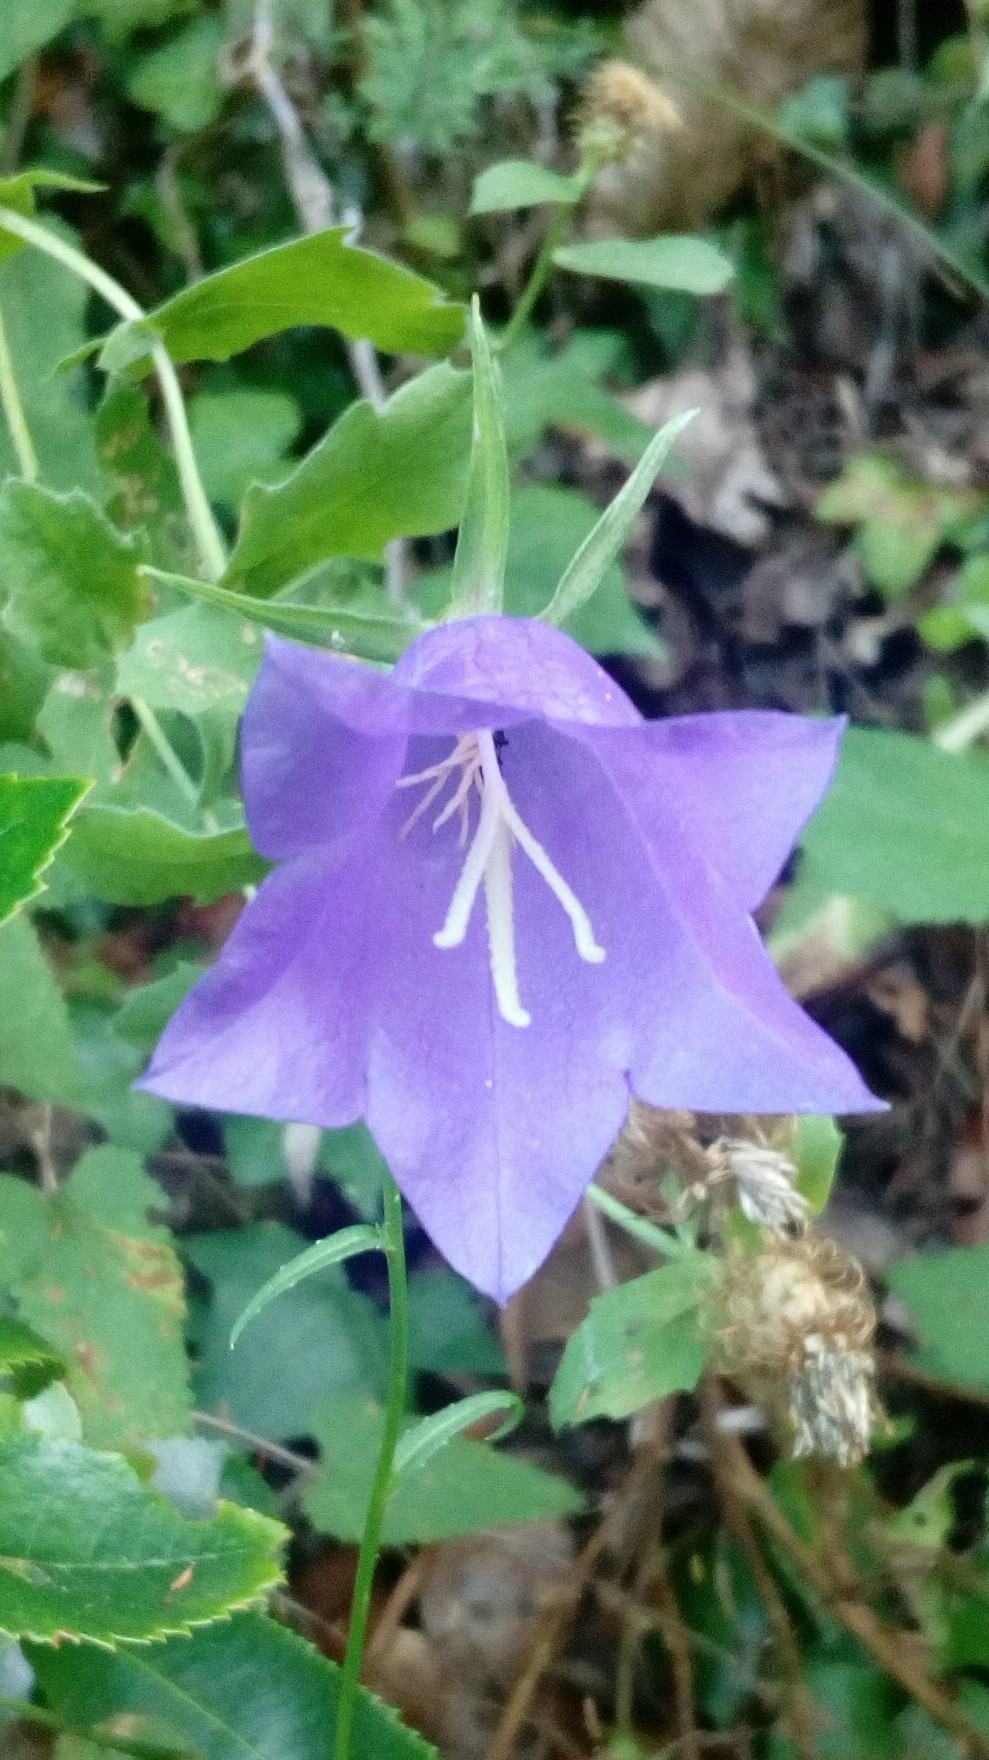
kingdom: Plantae
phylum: Tracheophyta
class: Magnoliopsida
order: Asterales
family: Campanulaceae
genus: Campanula
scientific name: Campanula persicifolia
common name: Peach-leaved bellflower
